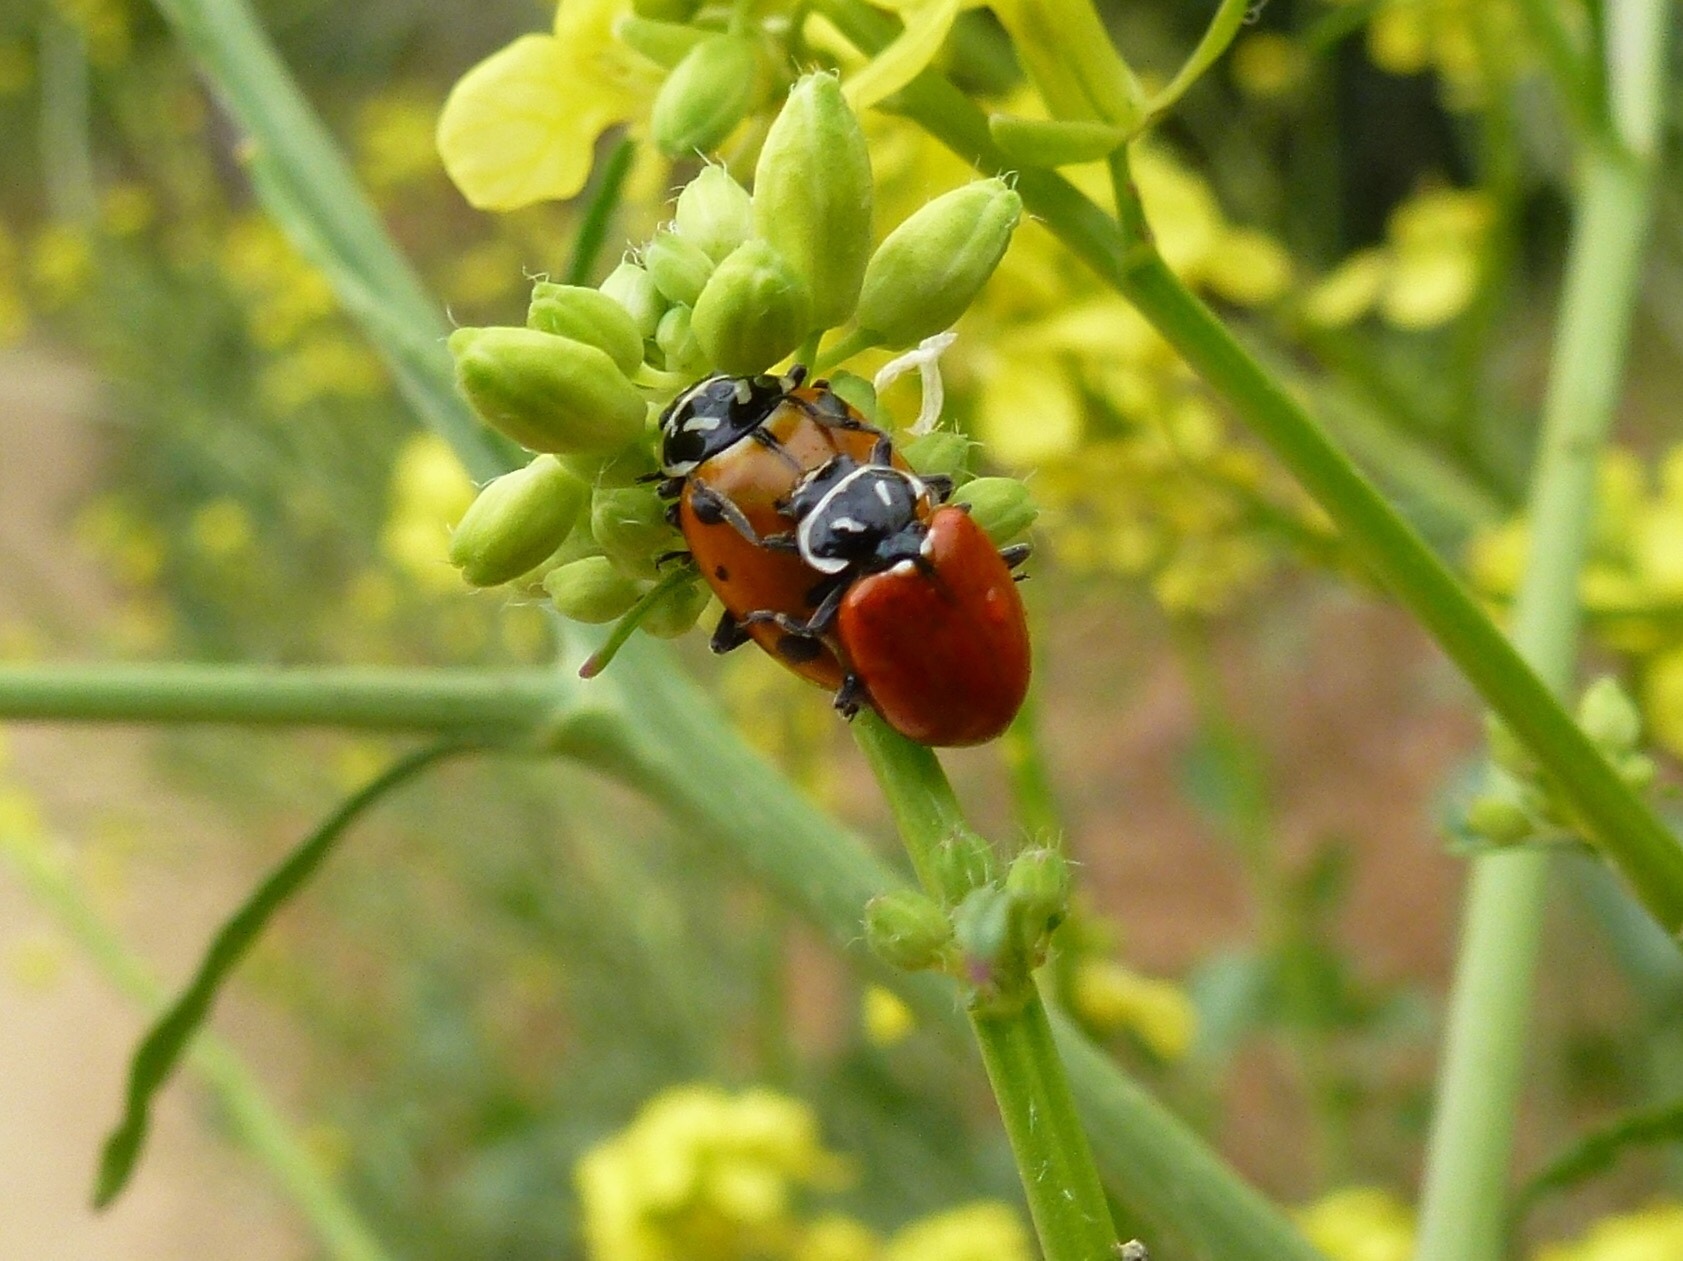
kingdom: Animalia
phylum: Arthropoda
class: Insecta
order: Coleoptera
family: Coccinellidae
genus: Hippodamia
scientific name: Hippodamia convergens
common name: Convergent lady beetle
